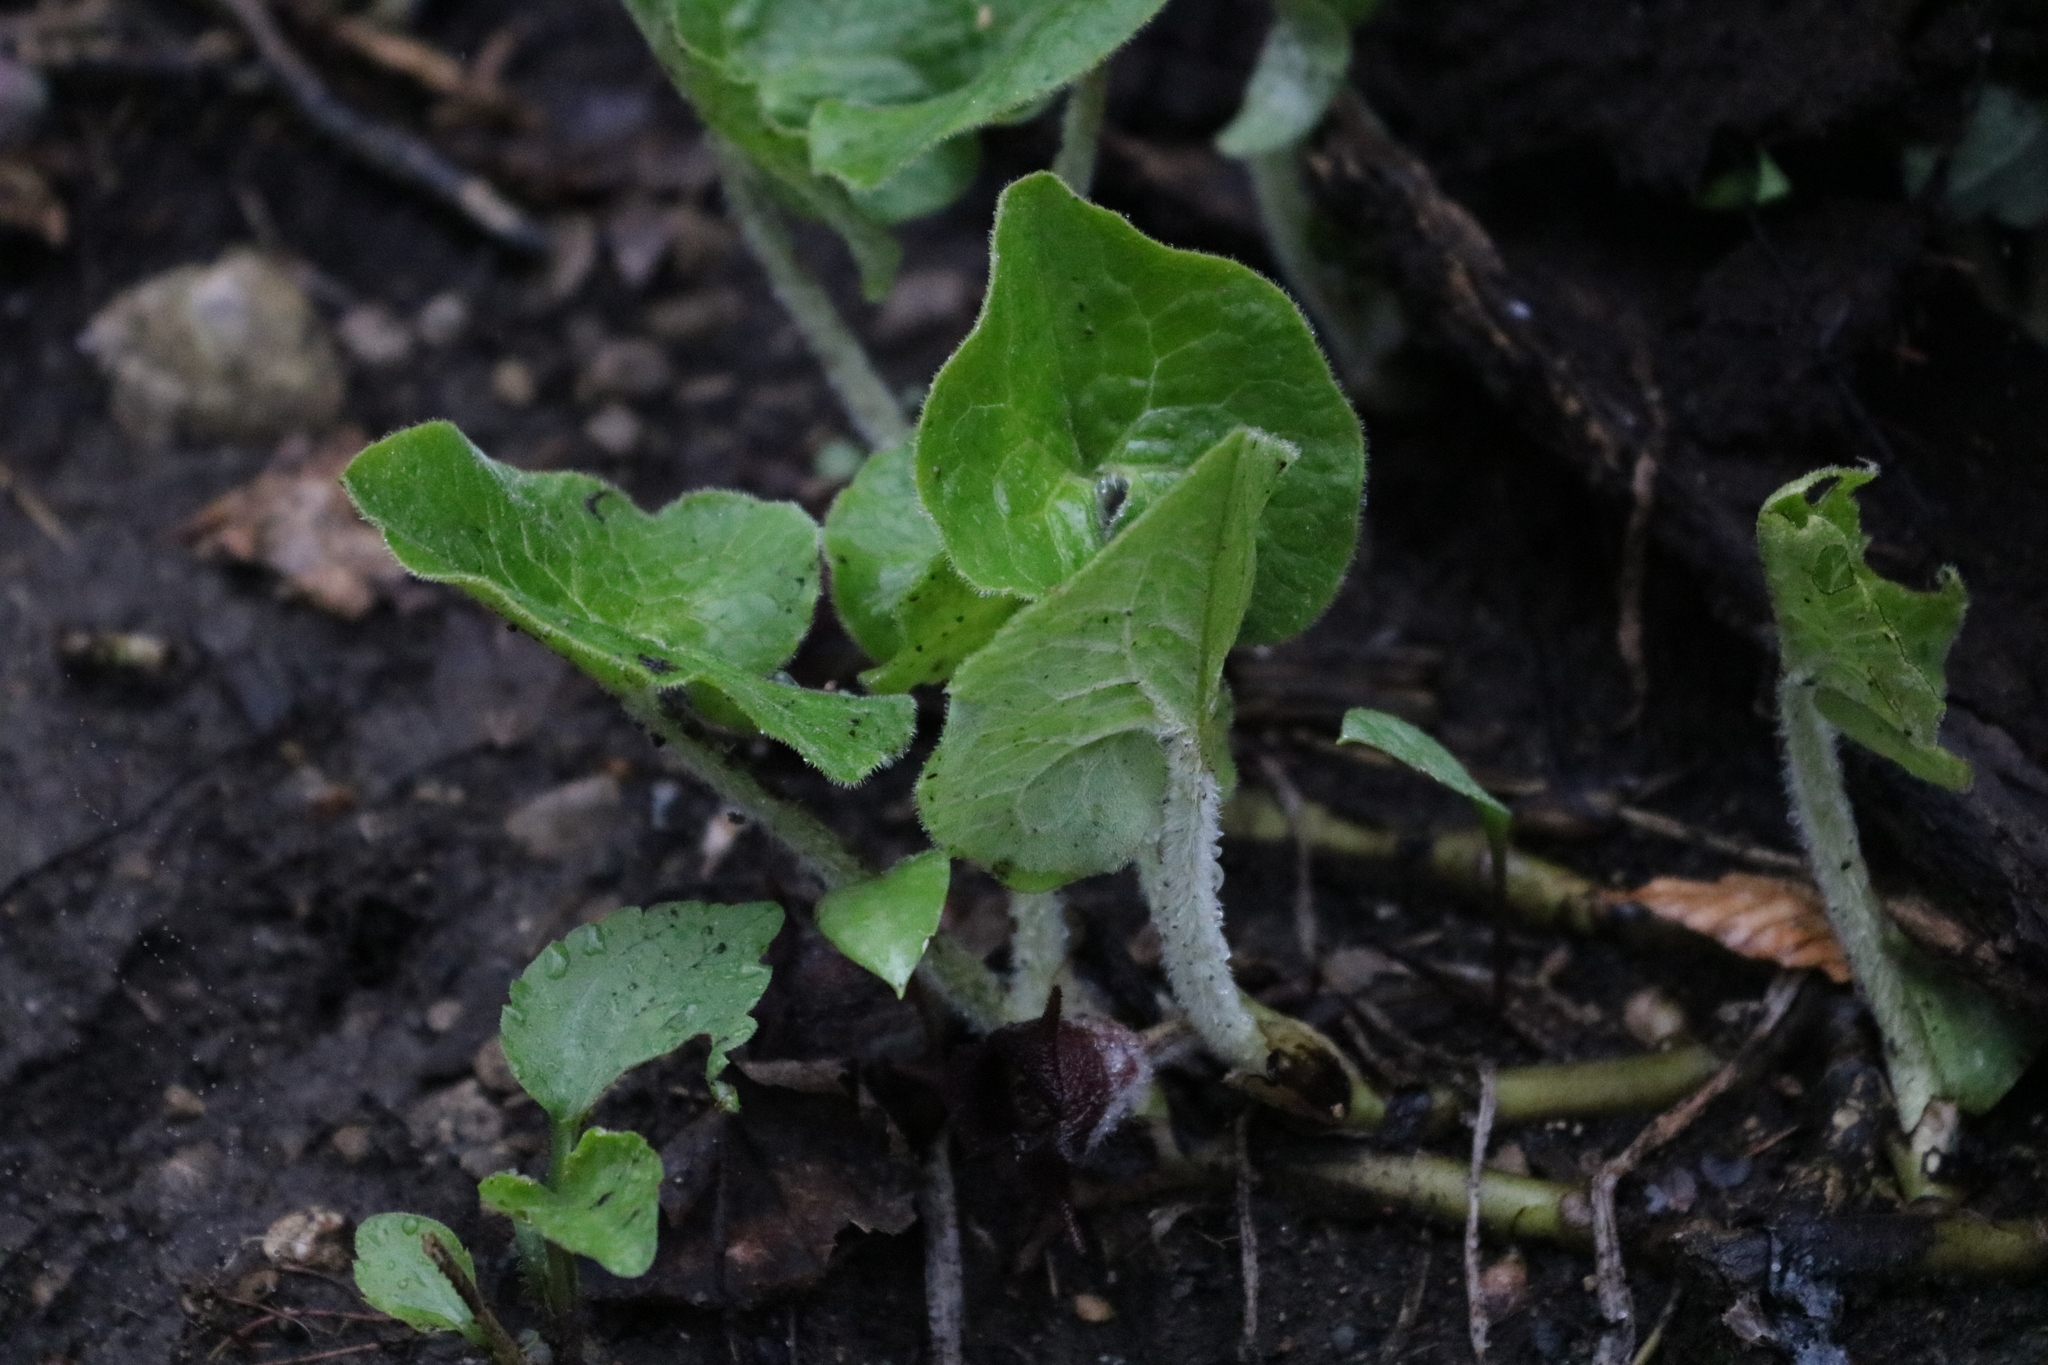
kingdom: Plantae
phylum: Tracheophyta
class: Magnoliopsida
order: Piperales
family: Aristolochiaceae
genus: Asarum
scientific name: Asarum canadense
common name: Wild ginger
